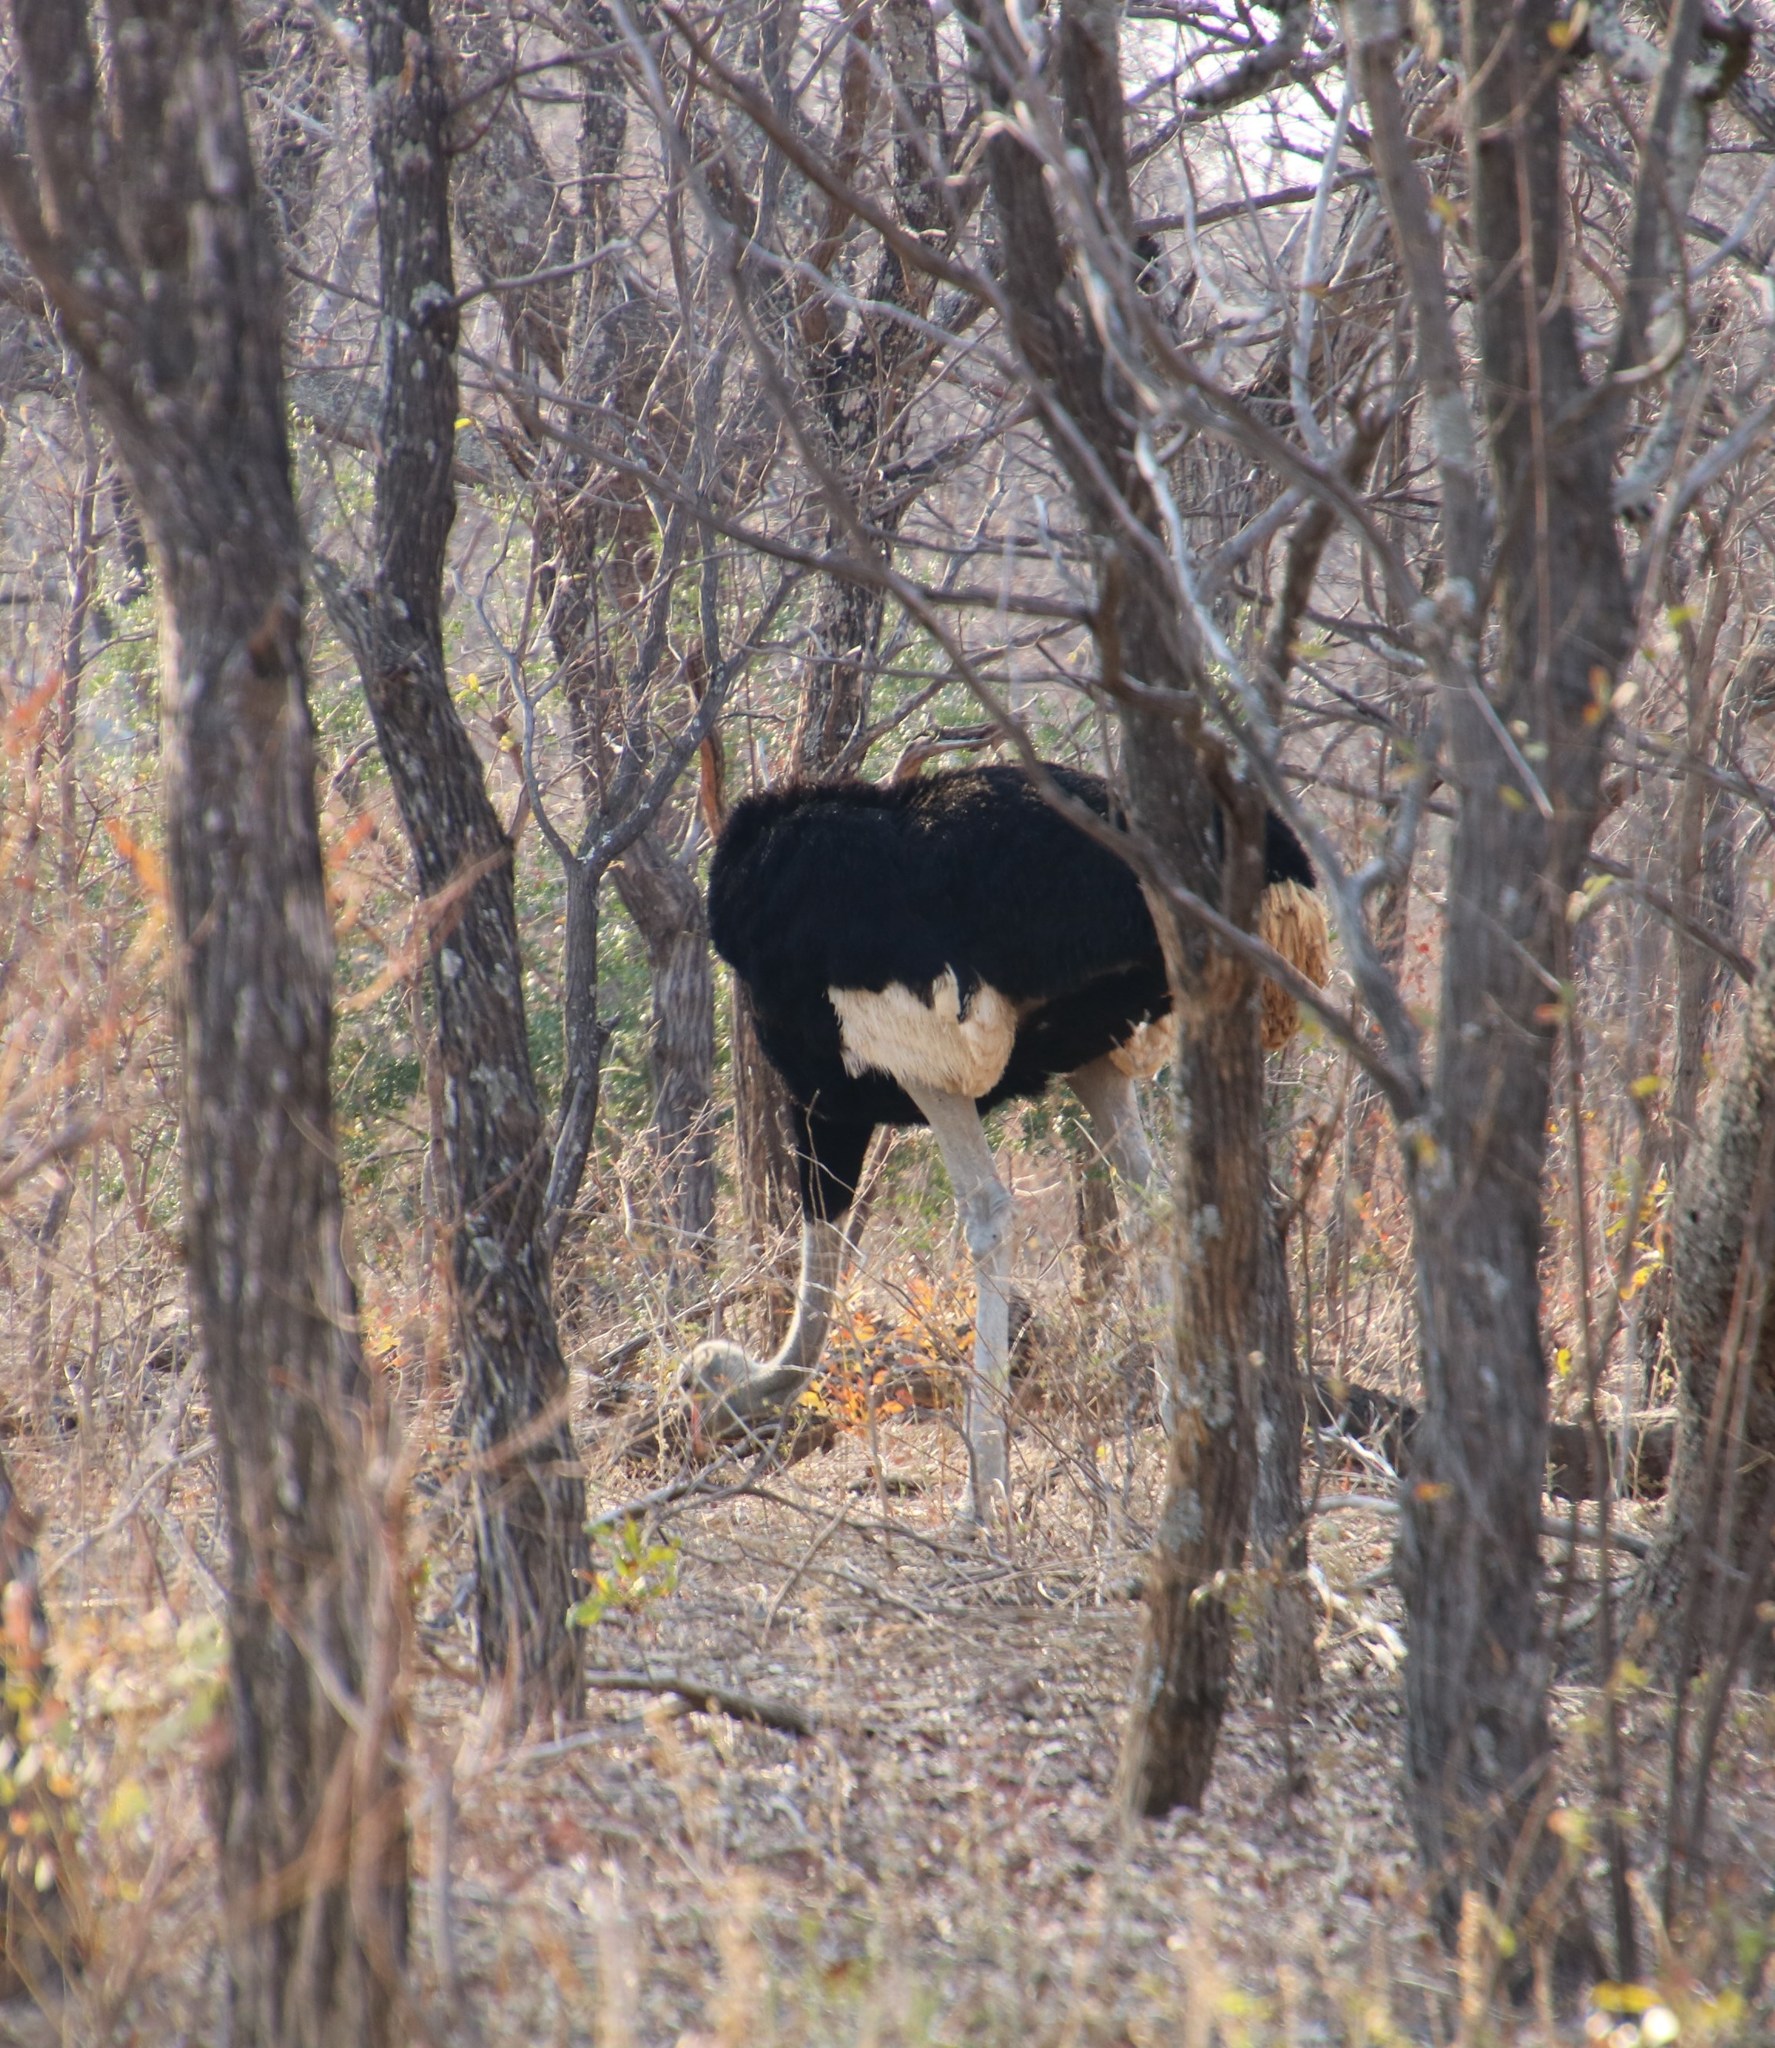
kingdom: Animalia
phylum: Chordata
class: Aves
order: Struthioniformes
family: Struthionidae
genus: Struthio
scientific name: Struthio camelus
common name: Common ostrich
